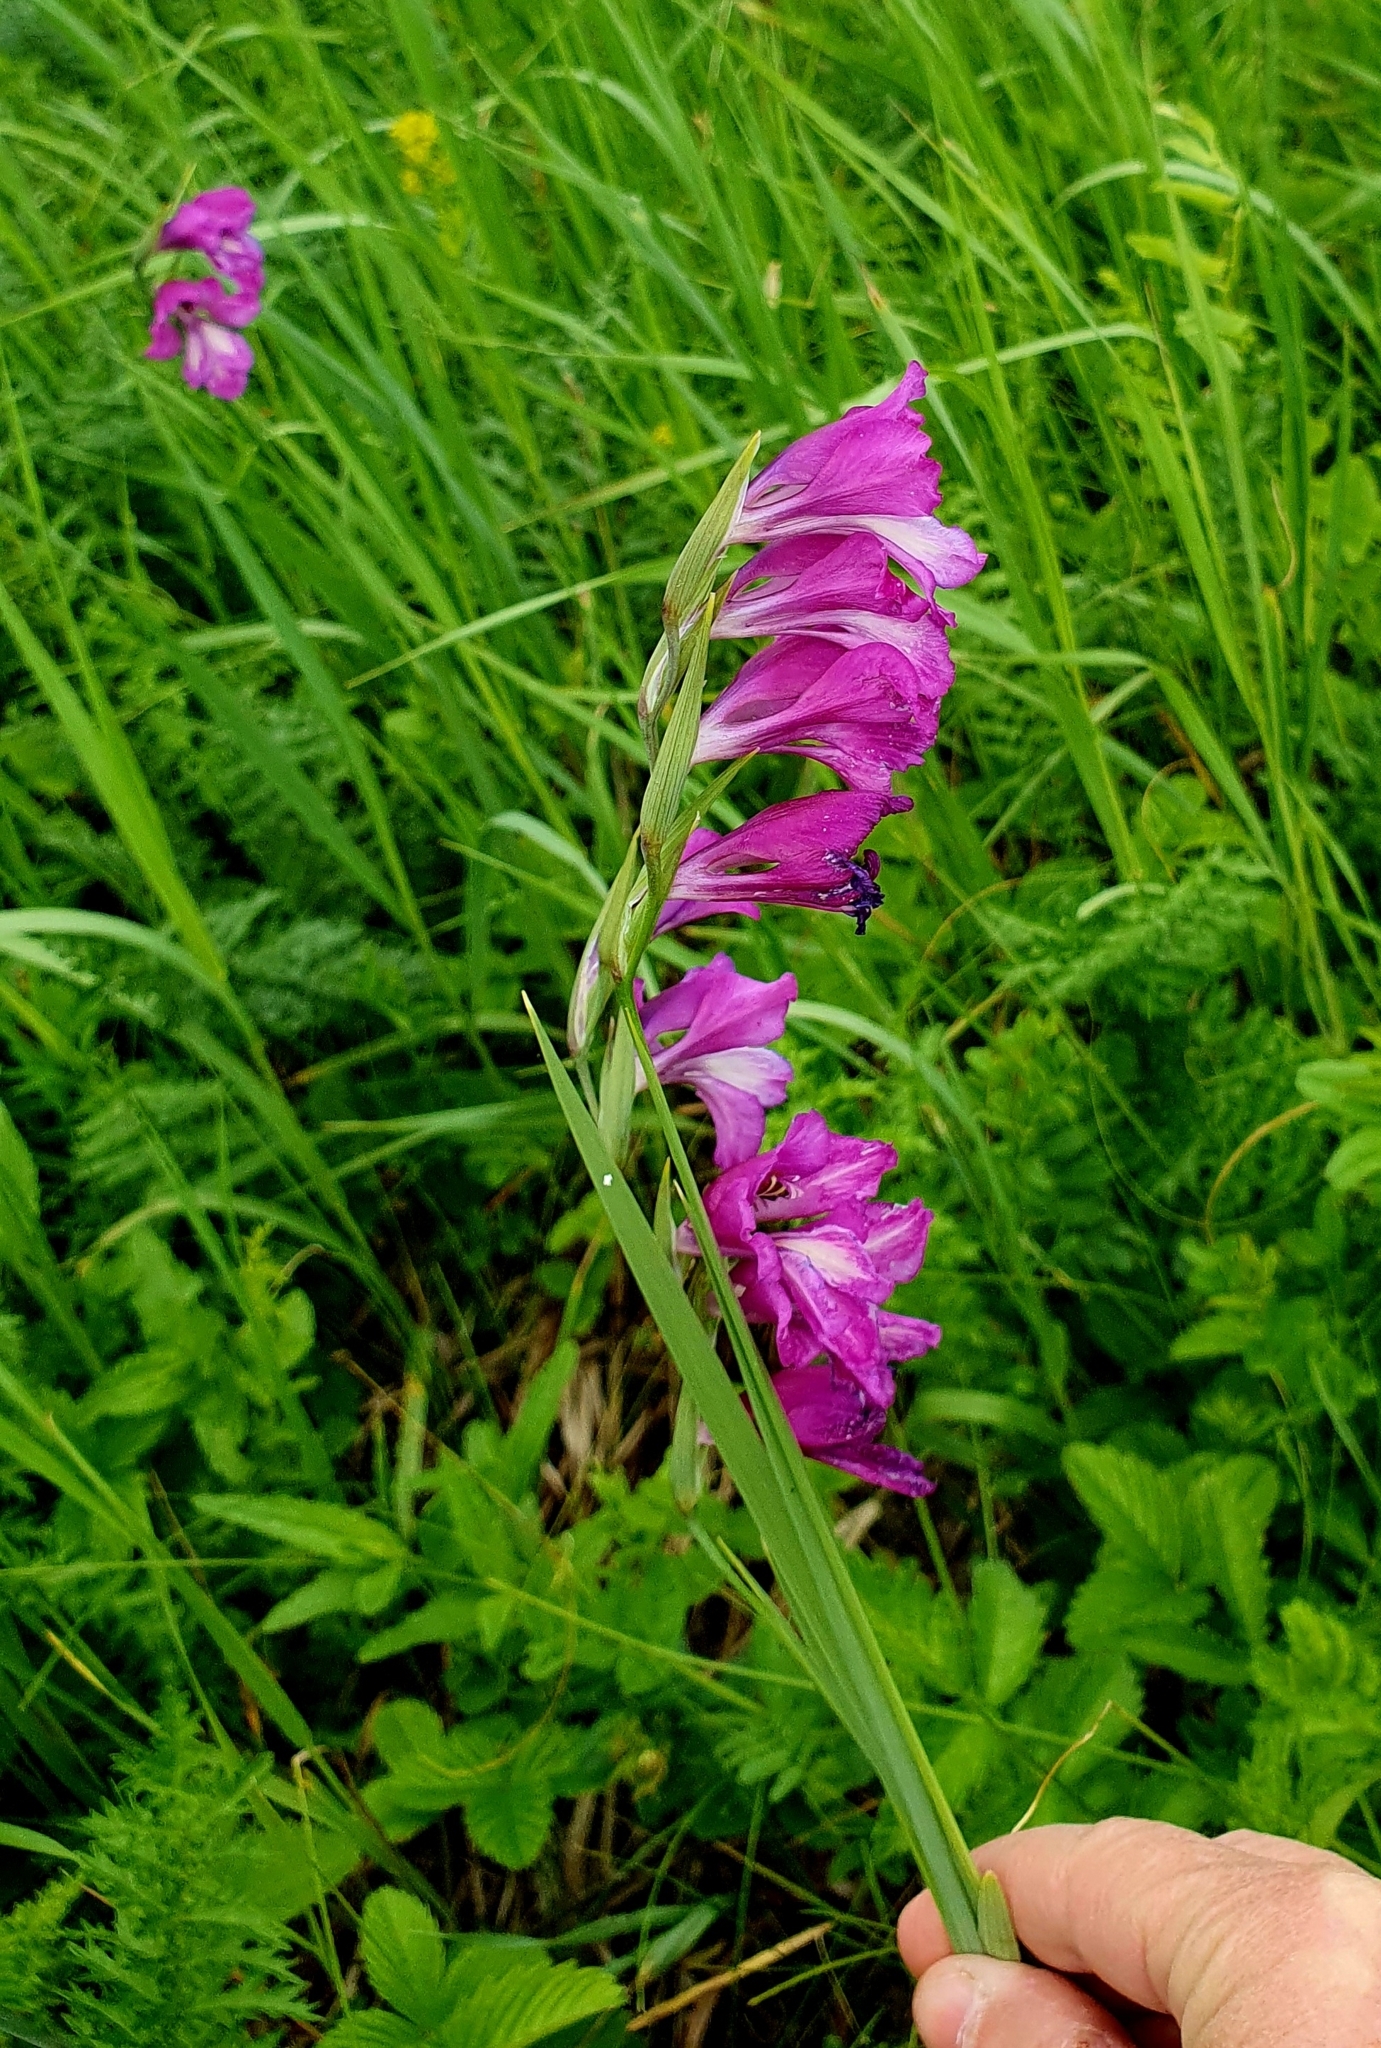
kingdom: Plantae
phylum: Tracheophyta
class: Liliopsida
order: Asparagales
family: Iridaceae
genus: Gladiolus
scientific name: Gladiolus tenuis
